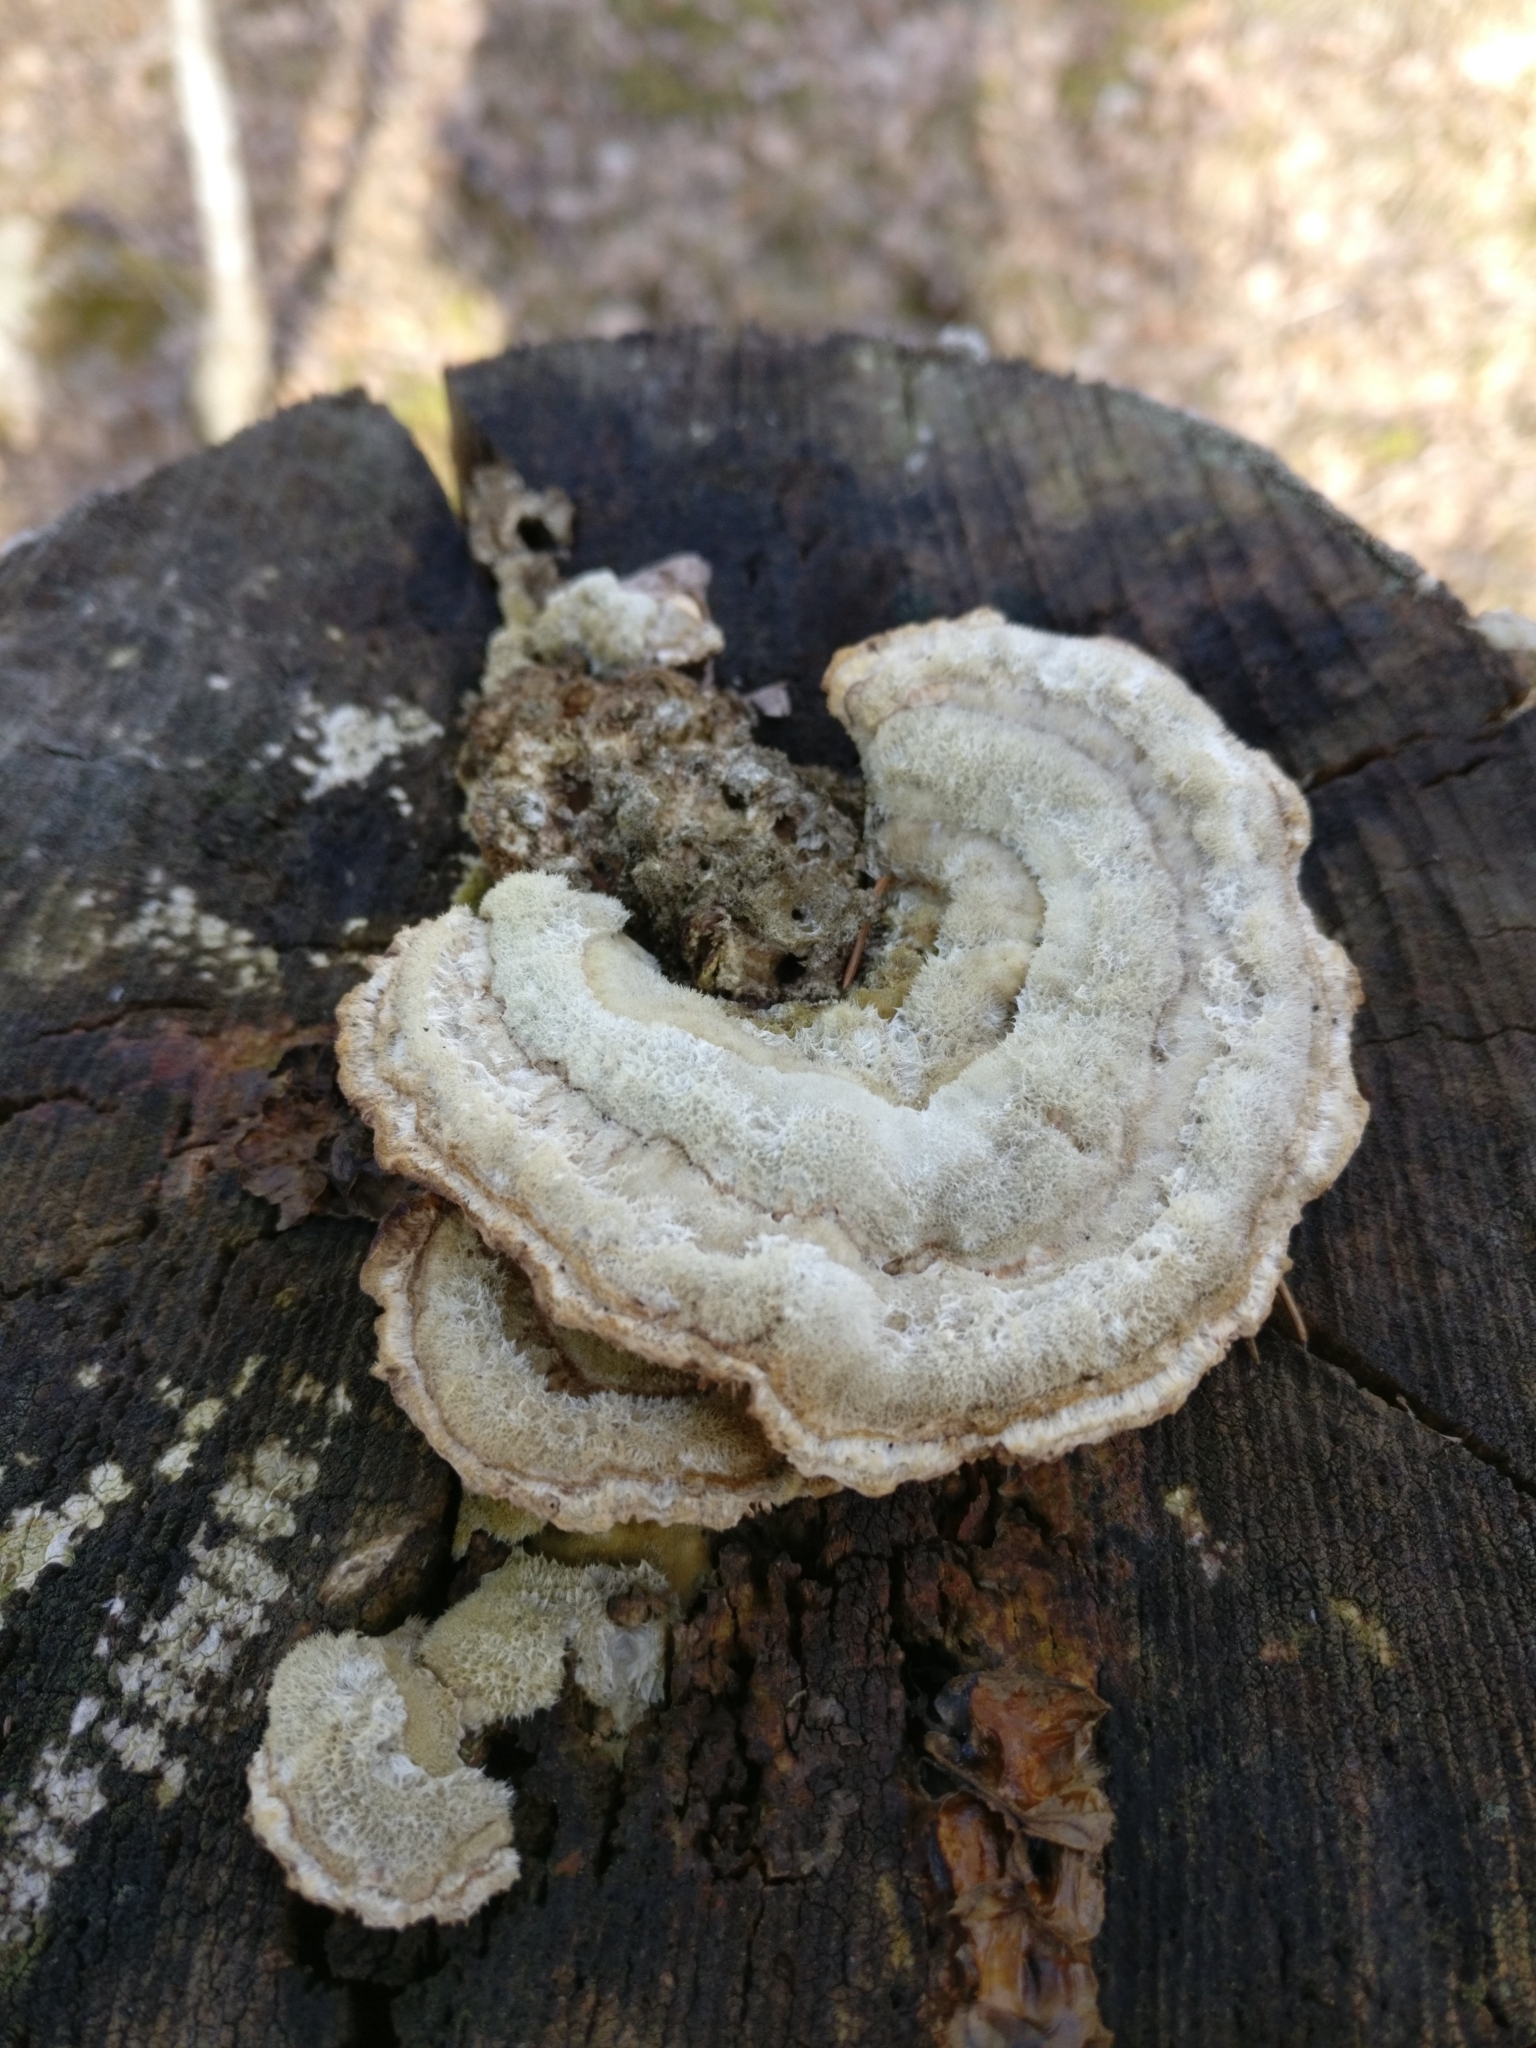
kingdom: Fungi
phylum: Basidiomycota
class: Agaricomycetes
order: Polyporales
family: Polyporaceae
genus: Lenzites
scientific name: Lenzites betulinus
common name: Birch mazegill
